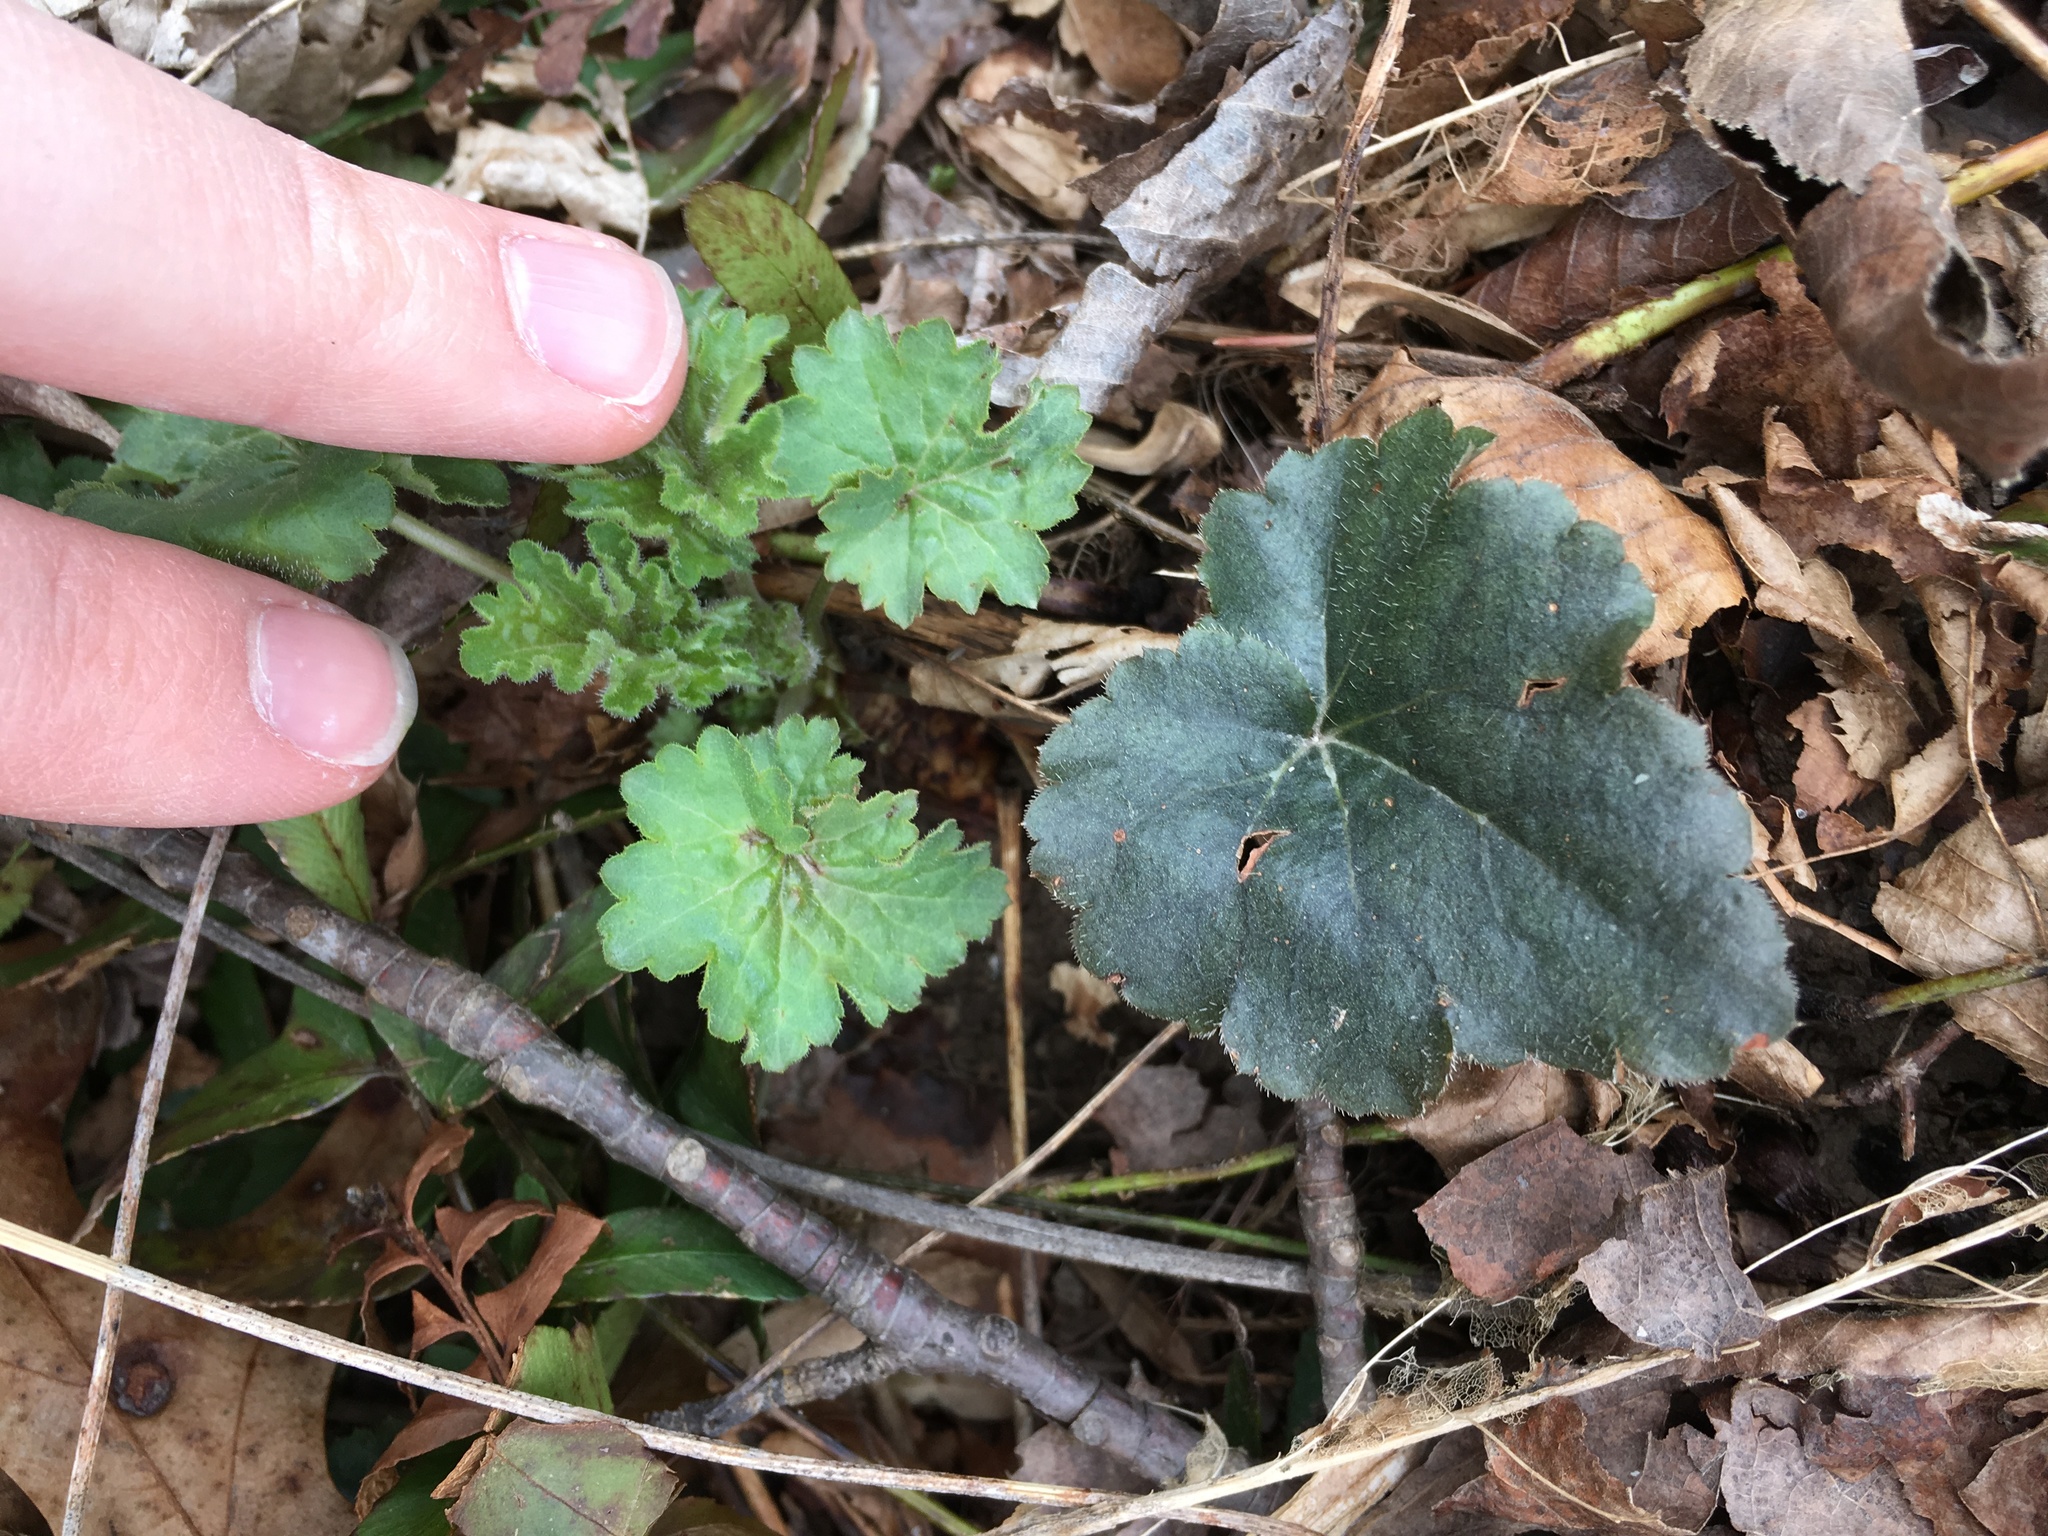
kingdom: Plantae
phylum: Tracheophyta
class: Magnoliopsida
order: Saxifragales
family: Saxifragaceae
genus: Heuchera
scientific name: Heuchera americana
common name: Alumroot
